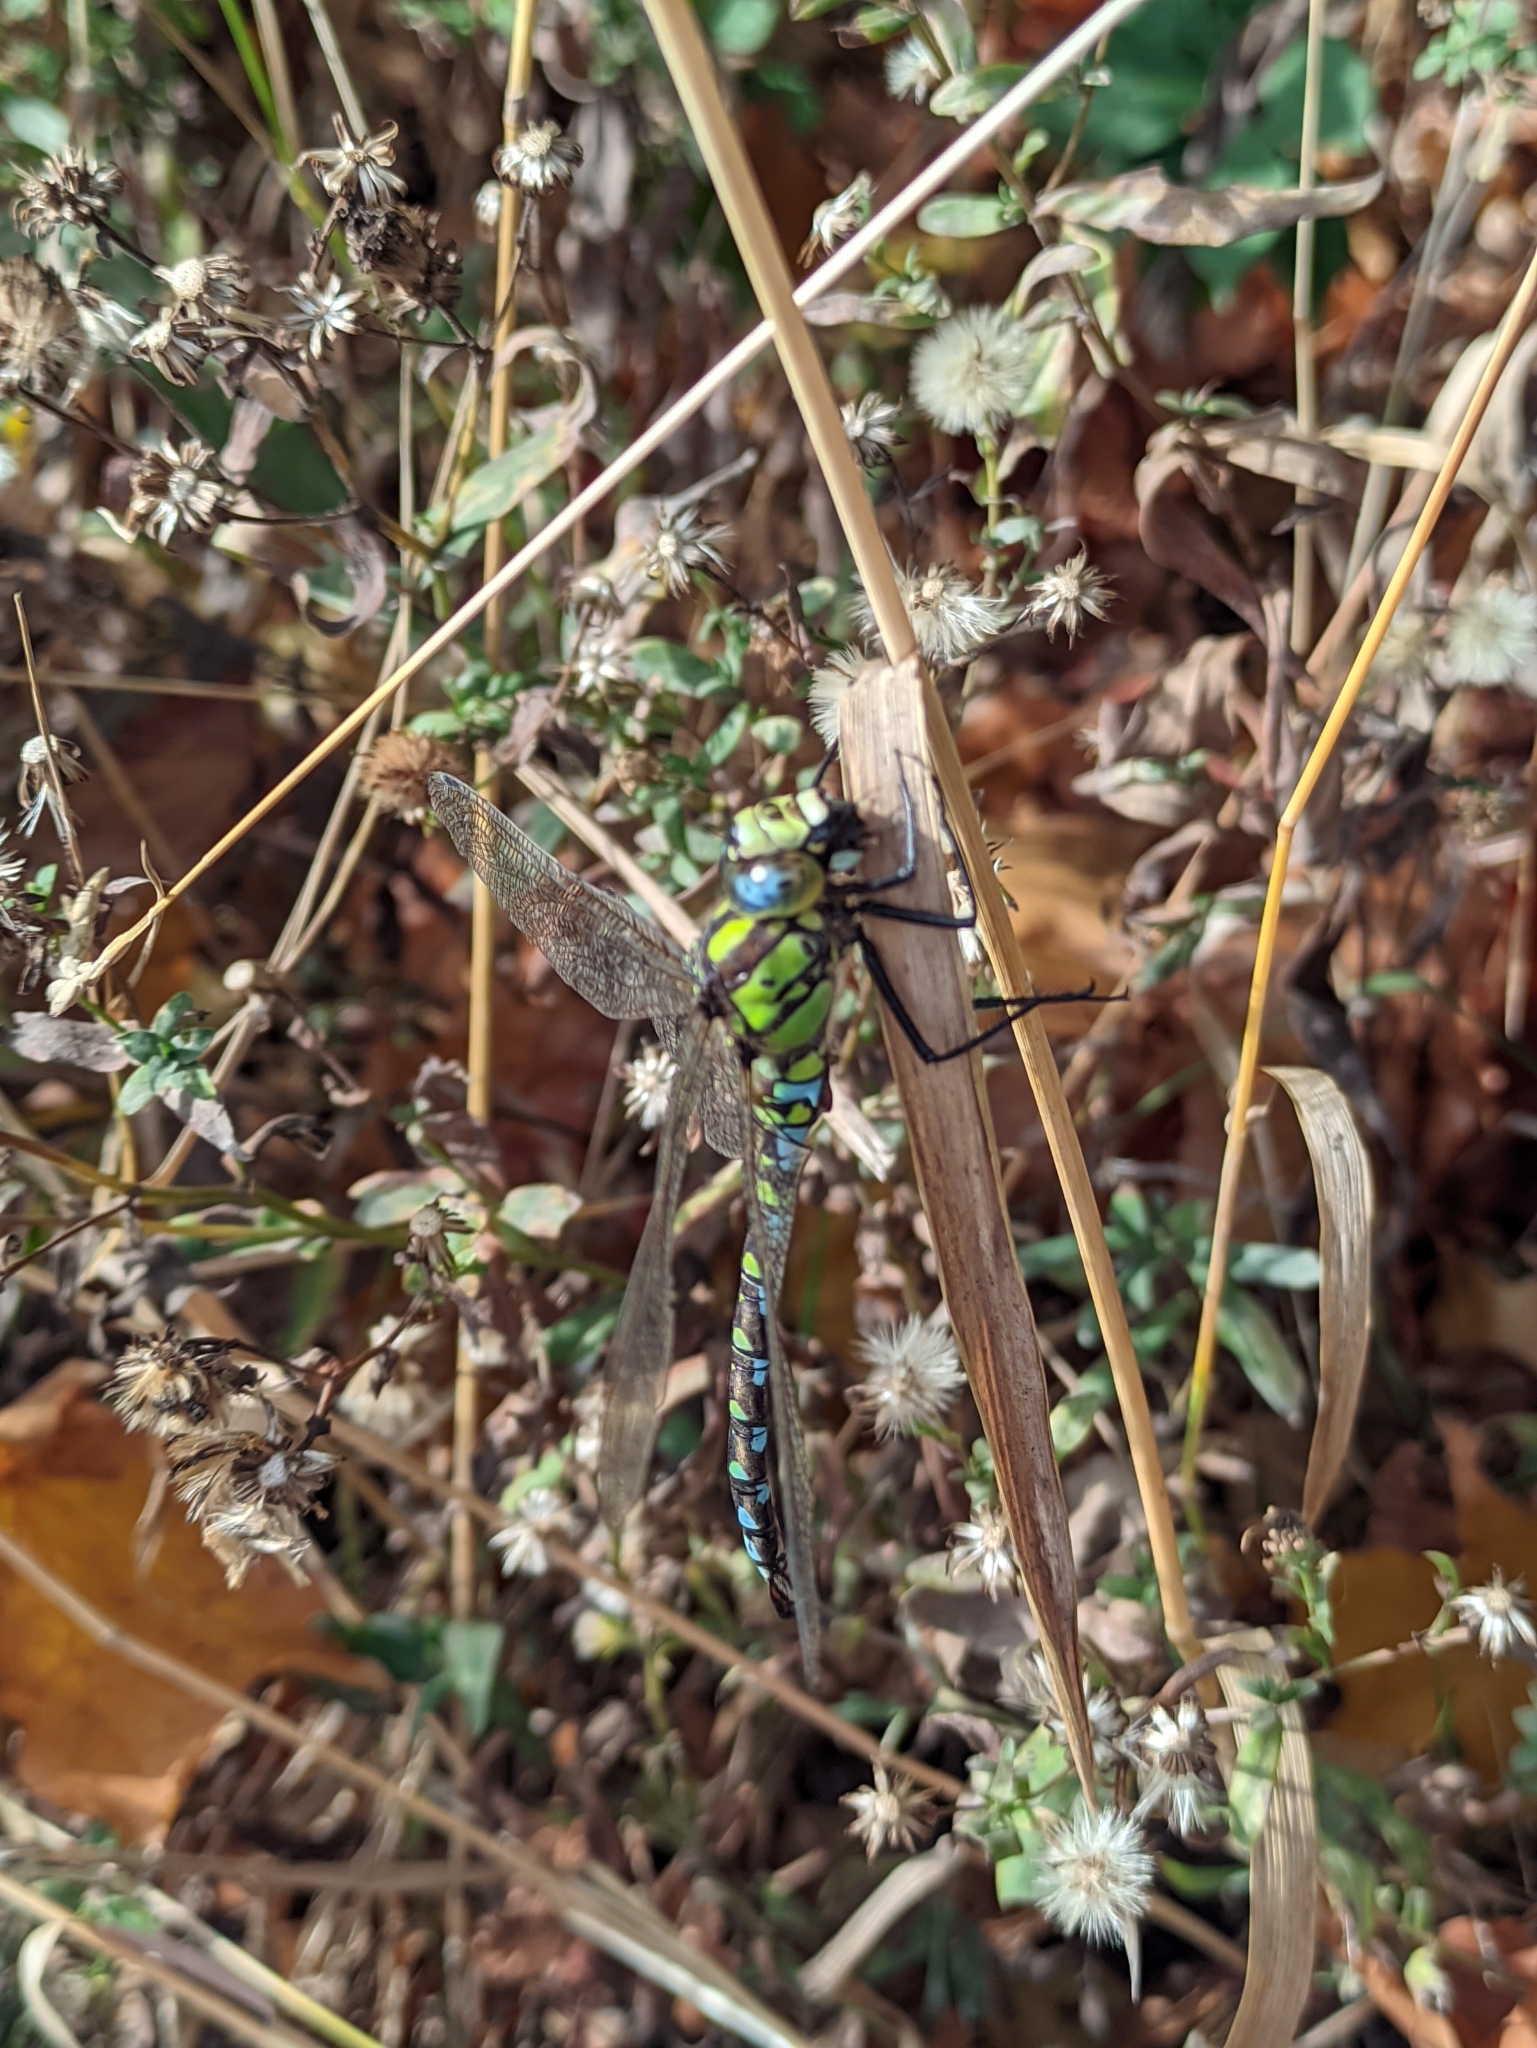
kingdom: Animalia
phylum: Arthropoda
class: Insecta
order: Odonata
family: Aeshnidae
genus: Aeshna
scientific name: Aeshna cyanea
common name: Southern hawker
